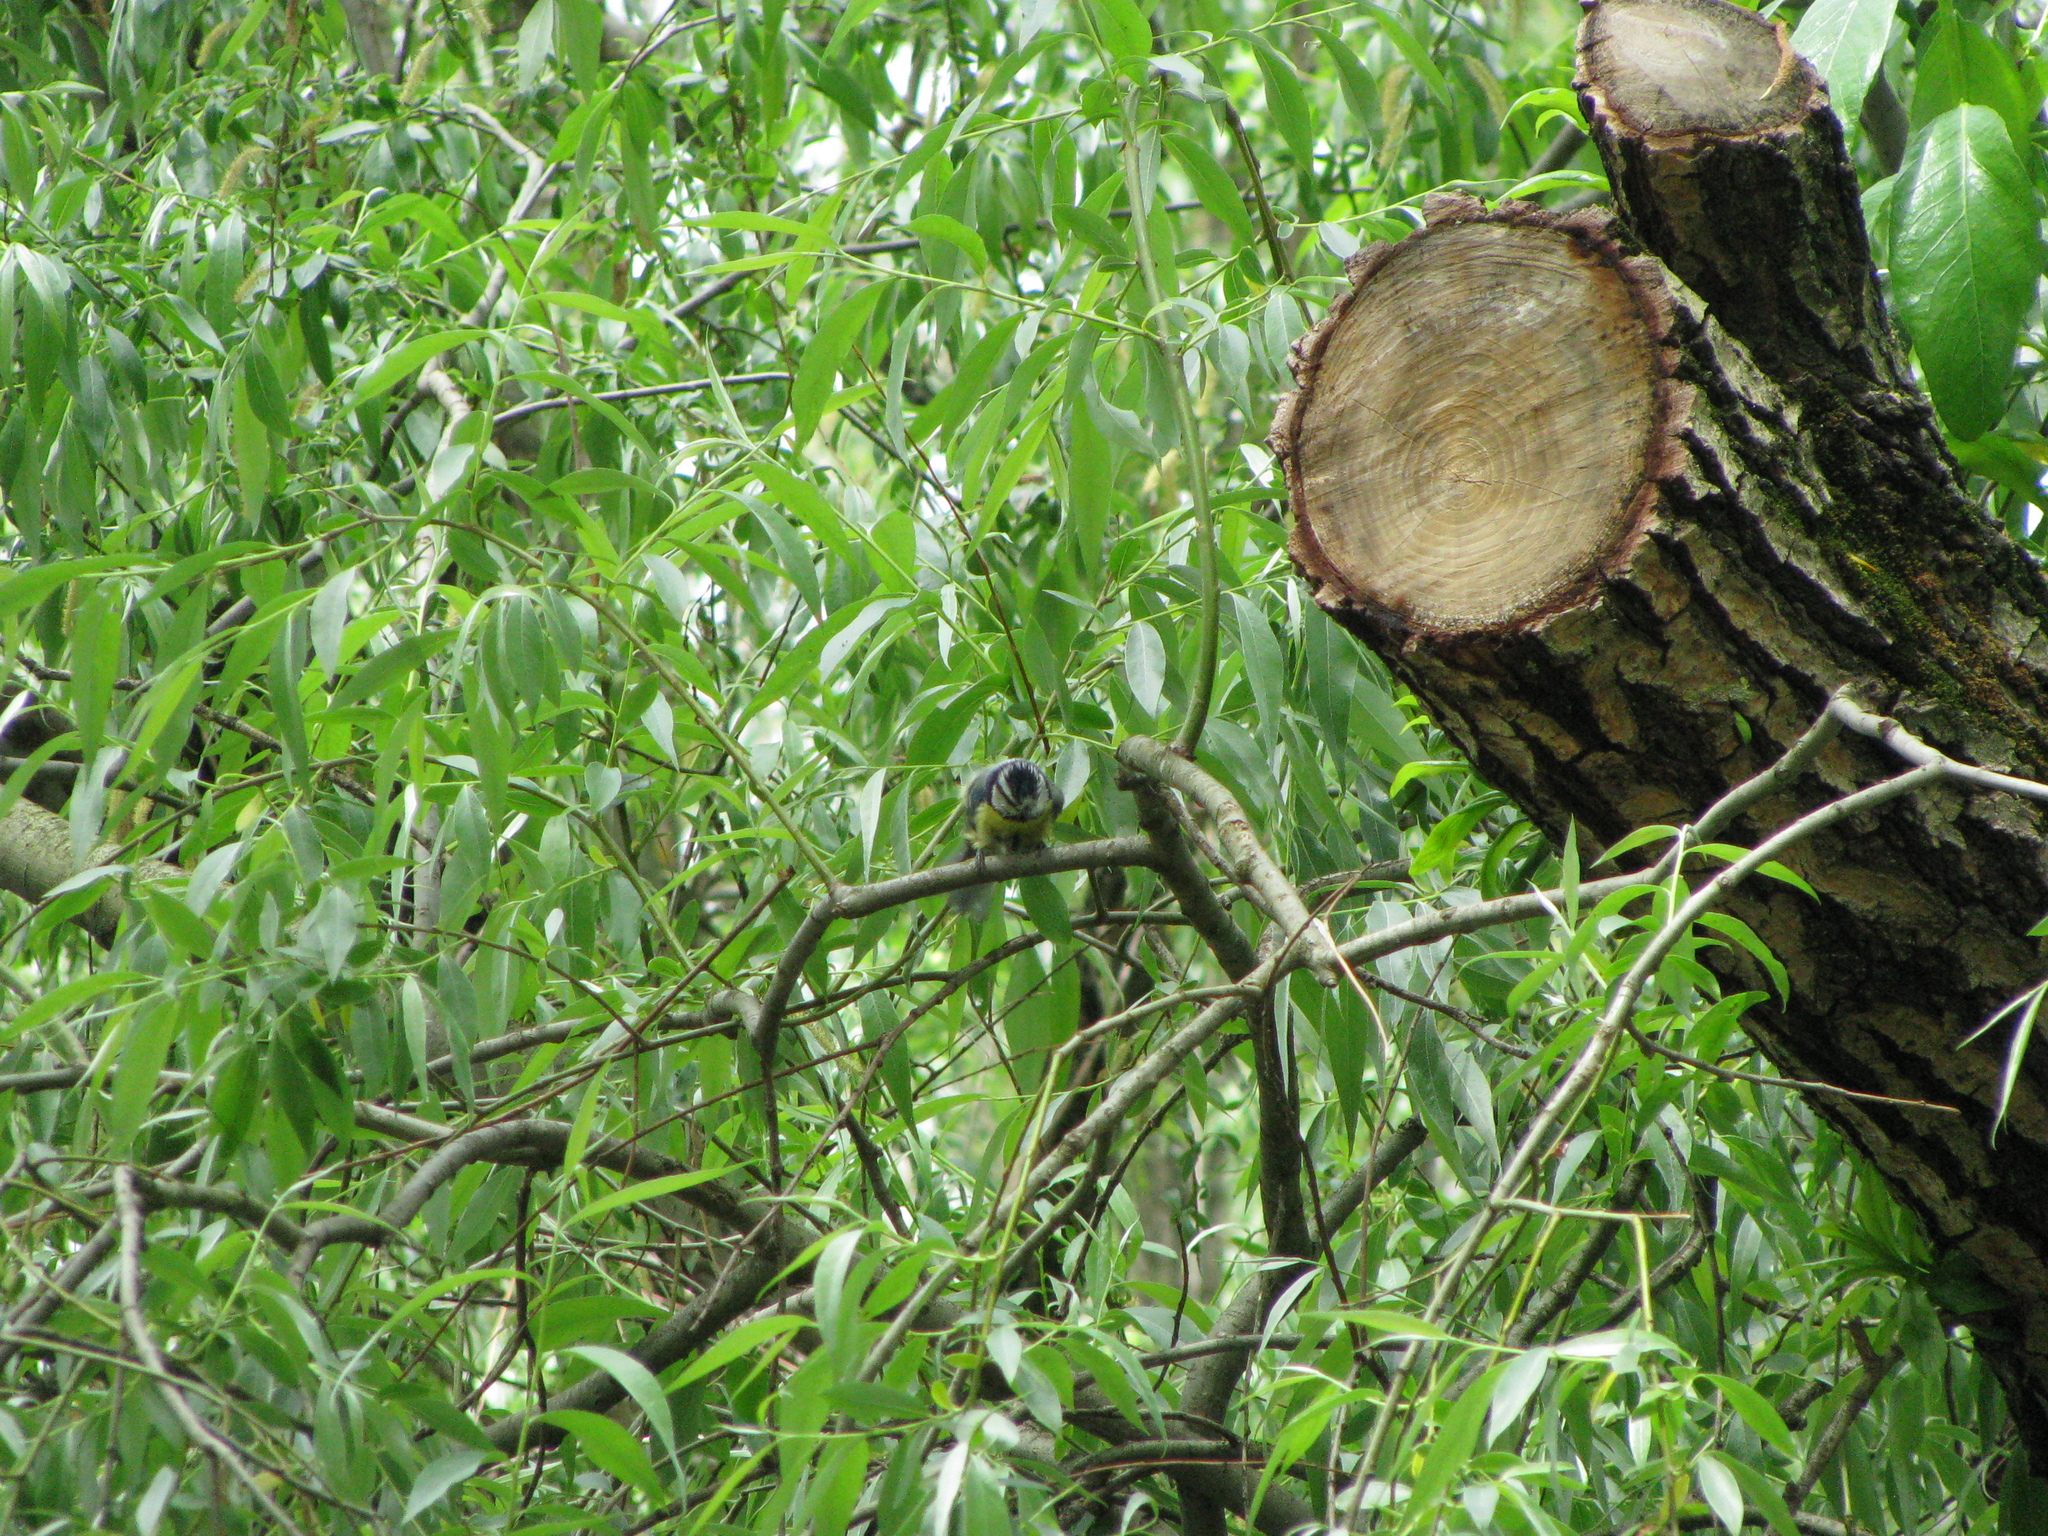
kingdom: Animalia
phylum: Chordata
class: Aves
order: Passeriformes
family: Paridae
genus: Cyanistes
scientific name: Cyanistes caeruleus
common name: Eurasian blue tit
